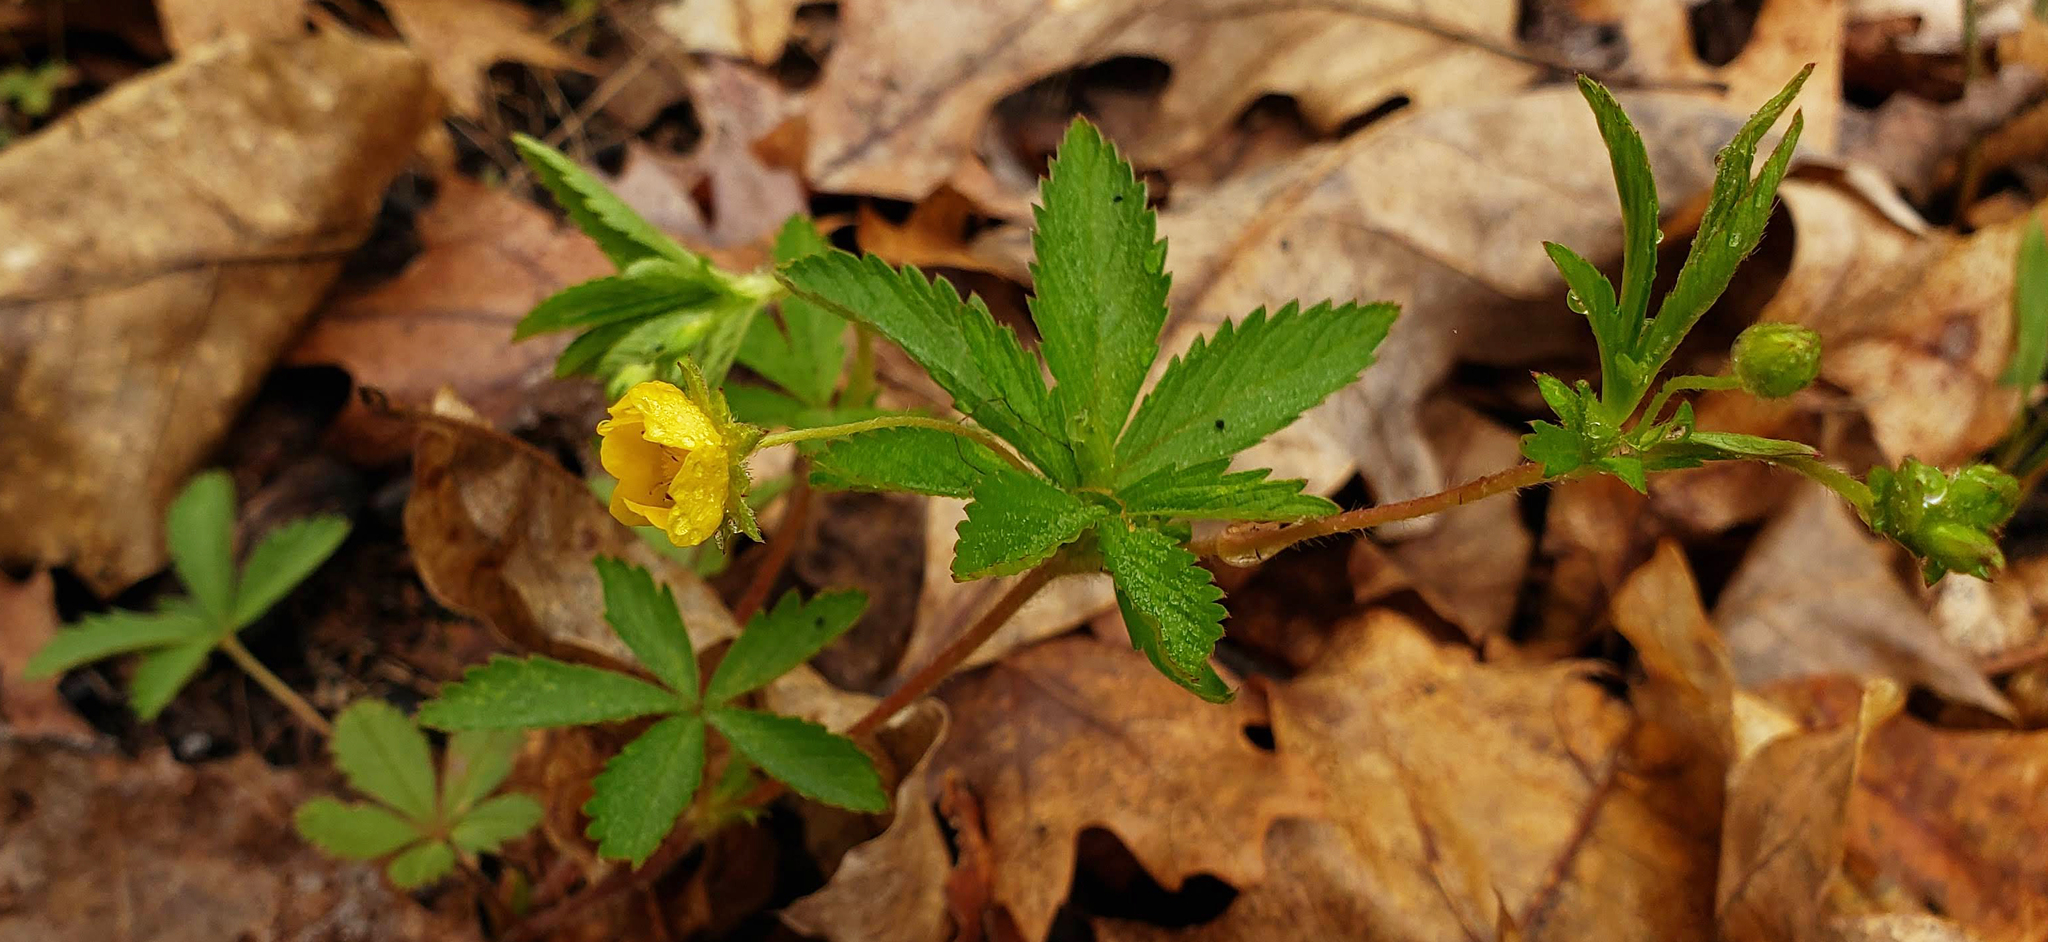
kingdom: Plantae
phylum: Tracheophyta
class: Magnoliopsida
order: Rosales
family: Rosaceae
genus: Potentilla
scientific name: Potentilla simplex
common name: Old field cinquefoil
